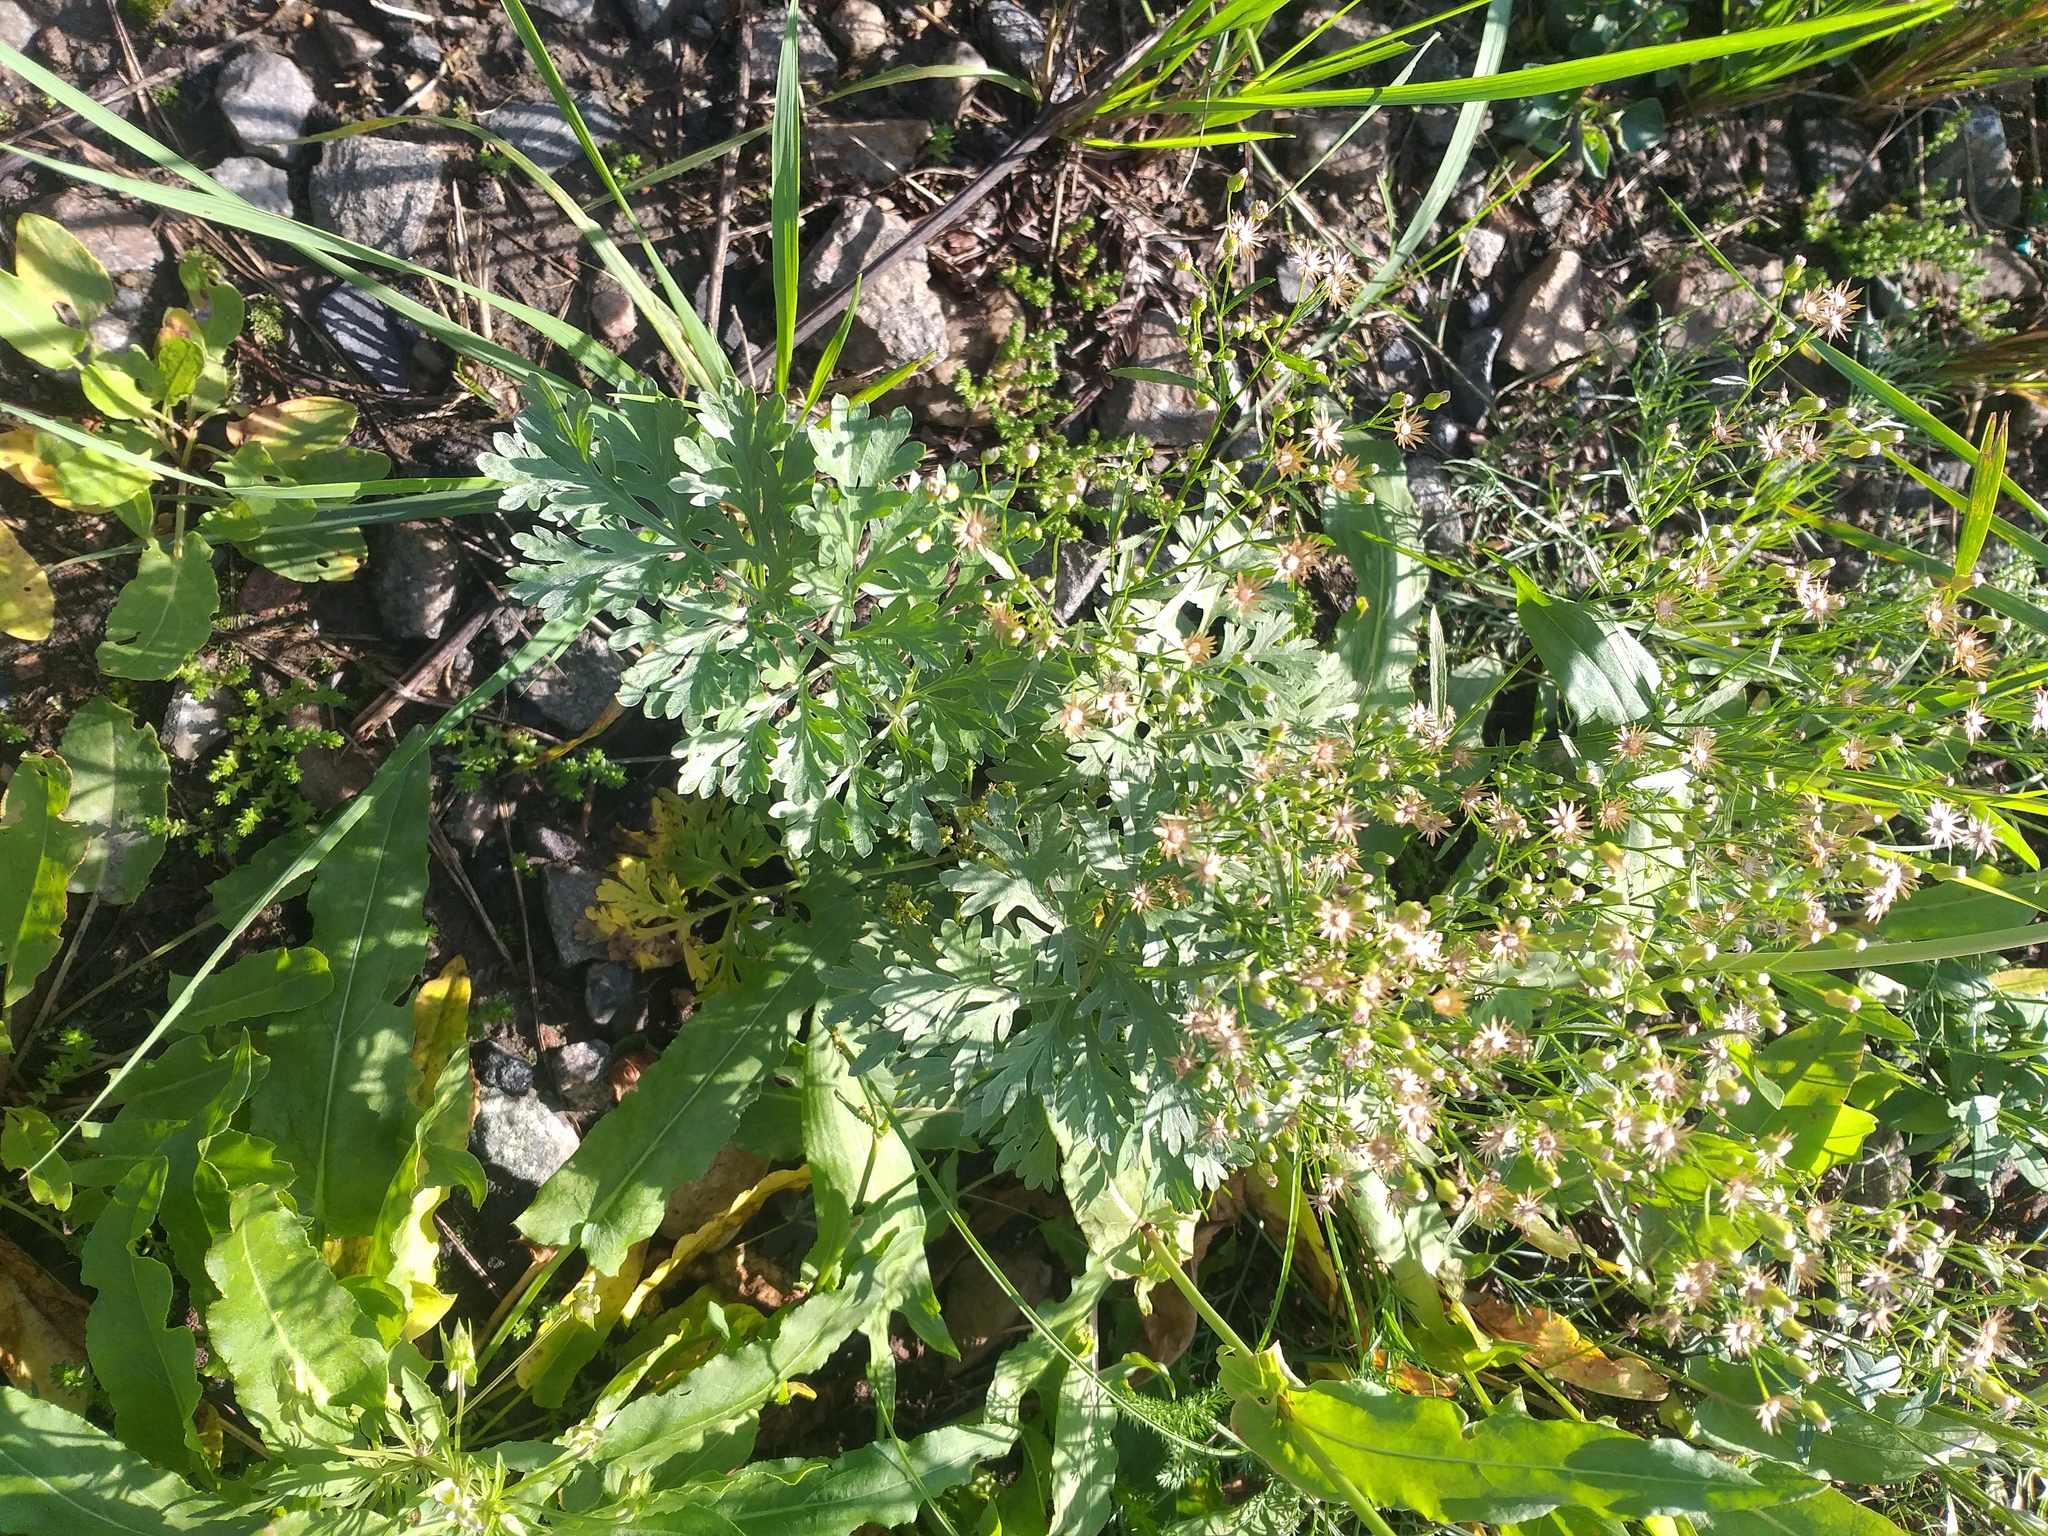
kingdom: Plantae
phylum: Tracheophyta
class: Magnoliopsida
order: Asterales
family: Asteraceae
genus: Artemisia
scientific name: Artemisia absinthium
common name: Wormwood
